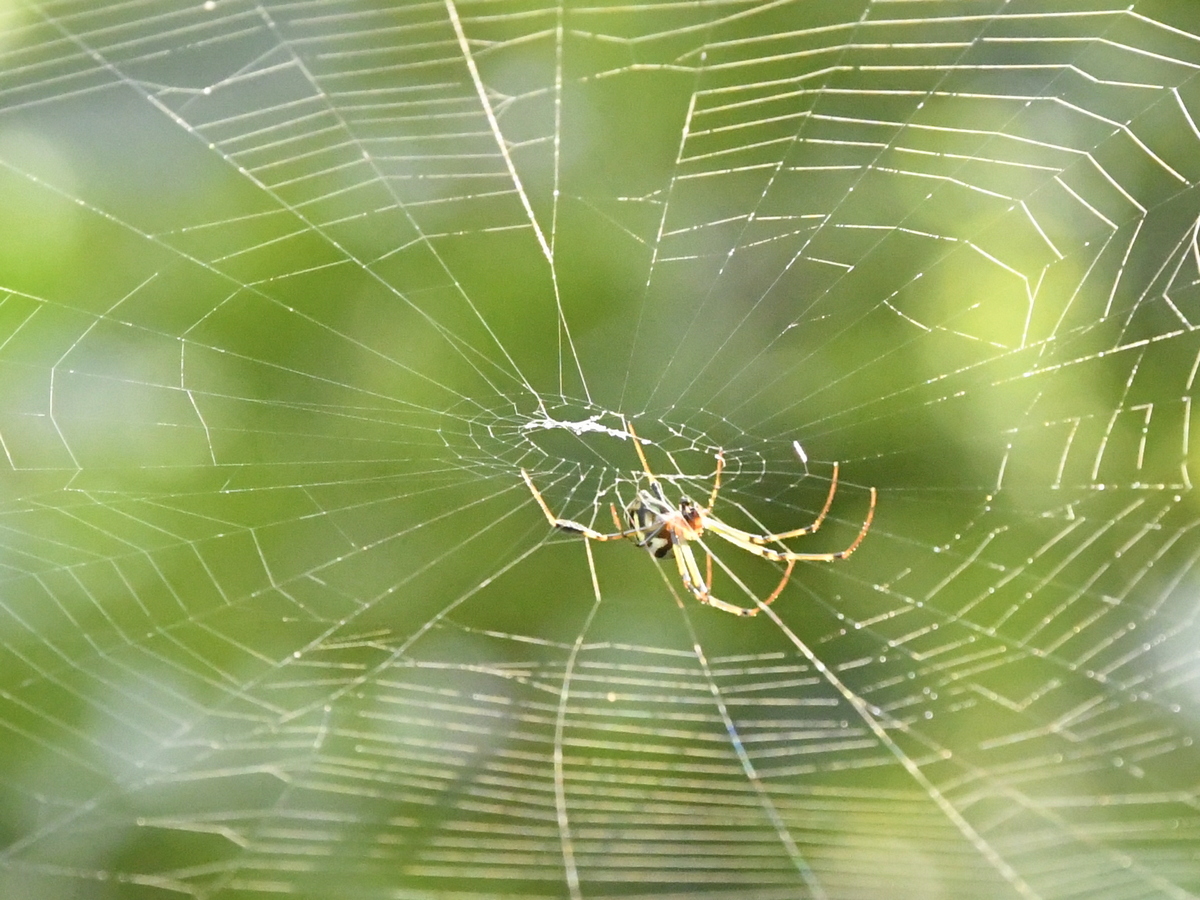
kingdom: Animalia
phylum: Arthropoda
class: Arachnida
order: Araneae
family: Tetragnathidae
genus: Leucauge
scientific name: Leucauge tessellata
